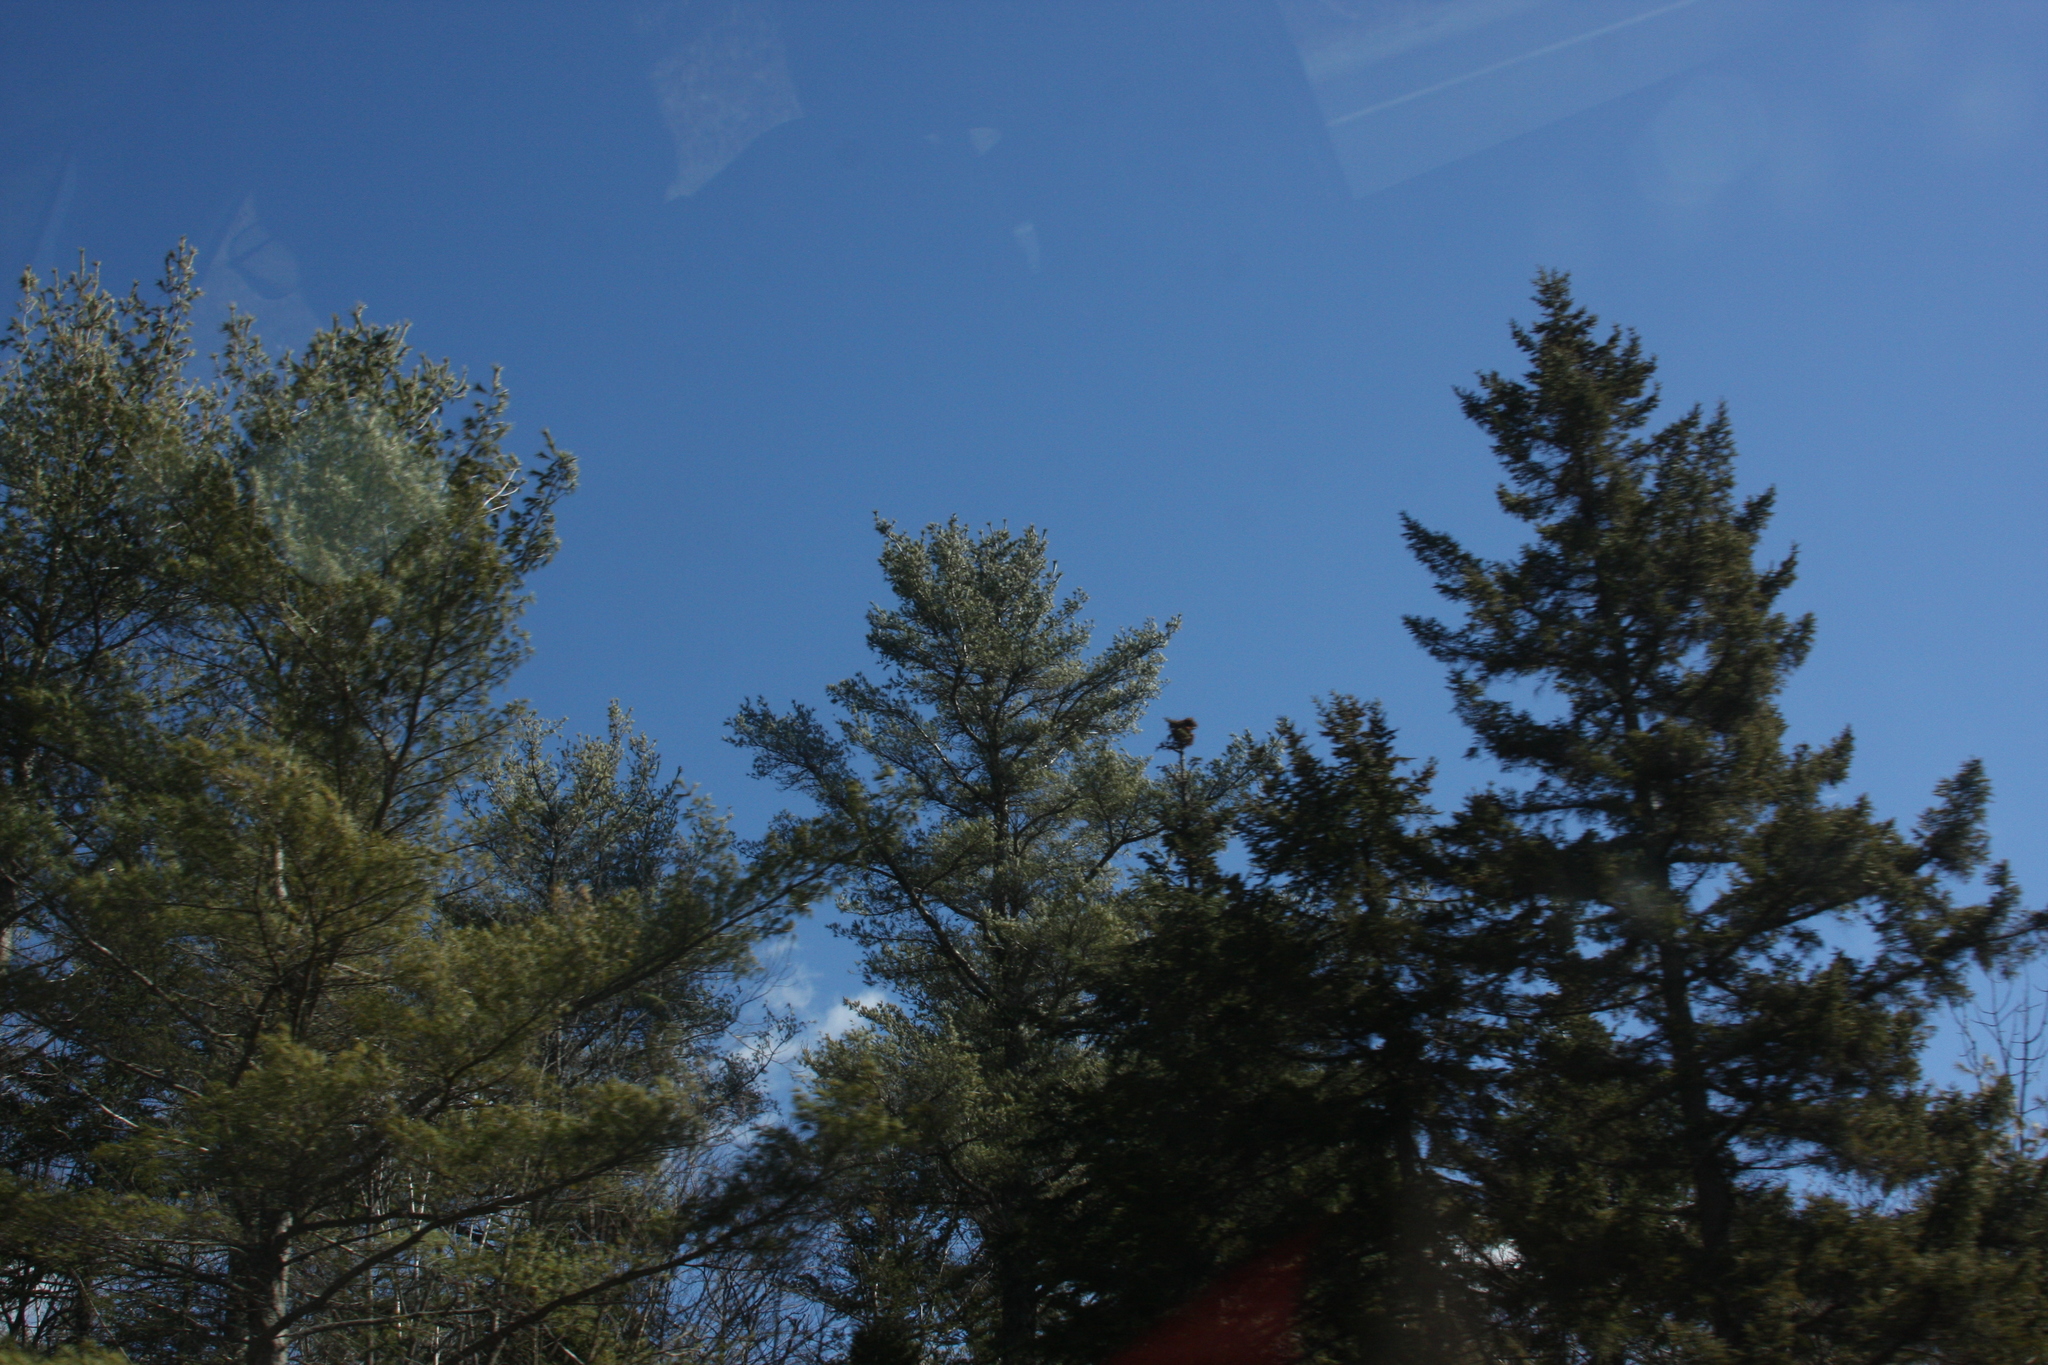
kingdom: Plantae
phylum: Tracheophyta
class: Pinopsida
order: Pinales
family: Pinaceae
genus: Pinus
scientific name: Pinus strobus
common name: Weymouth pine
